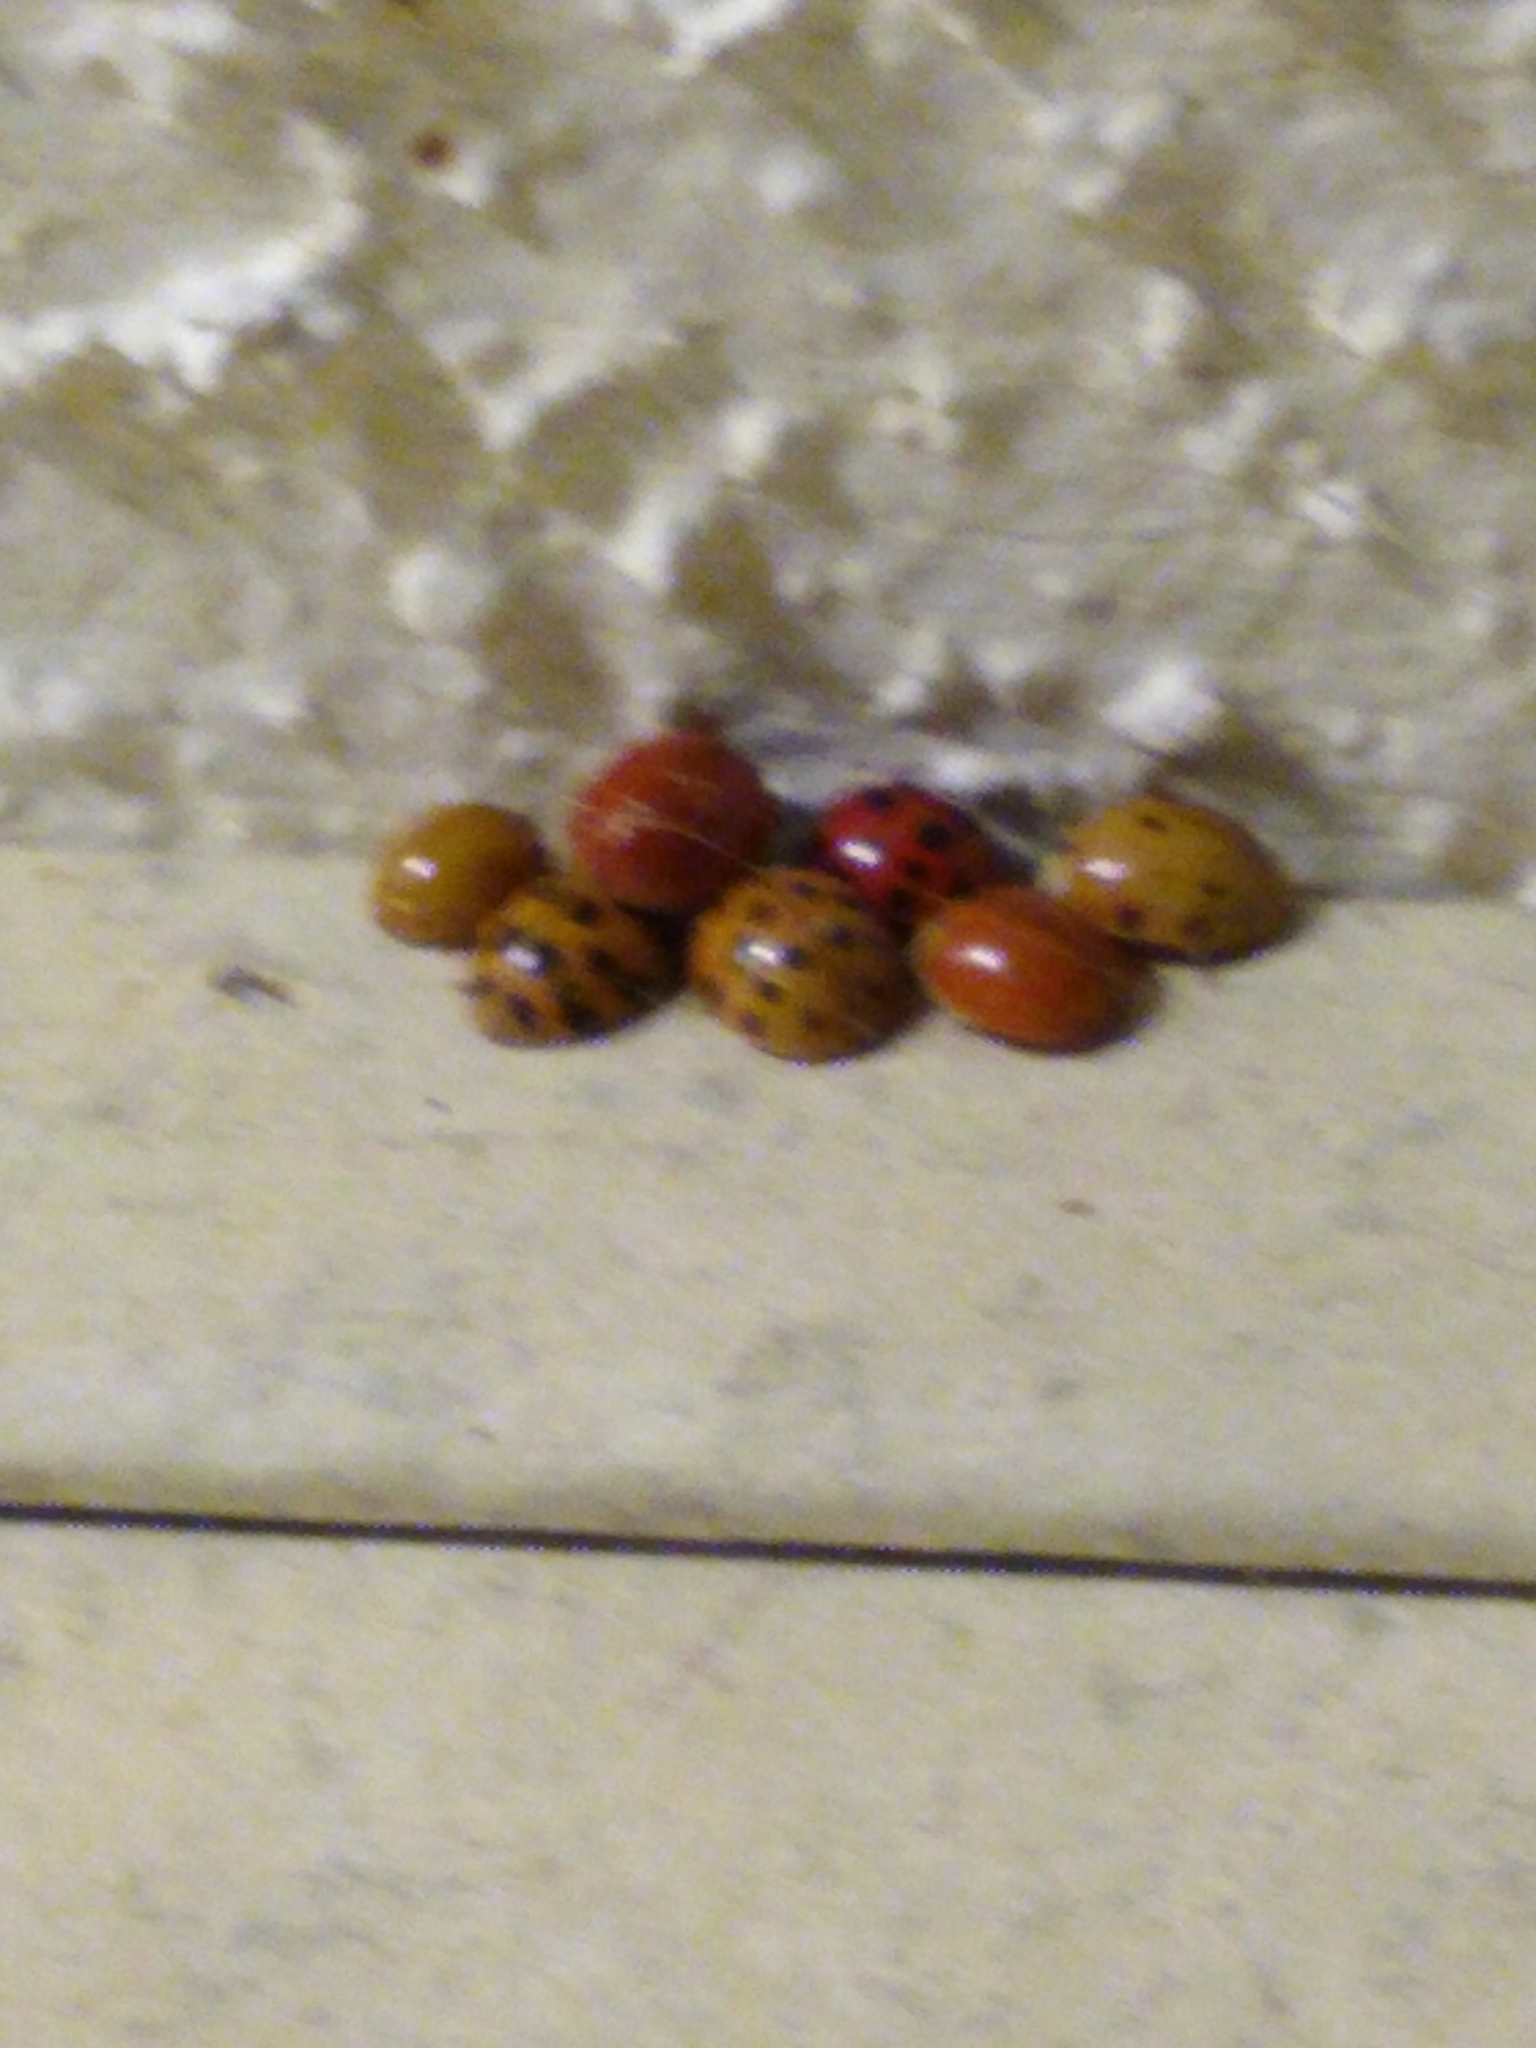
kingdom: Animalia
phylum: Arthropoda
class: Insecta
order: Coleoptera
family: Coccinellidae
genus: Harmonia
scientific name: Harmonia axyridis
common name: Harlequin ladybird
